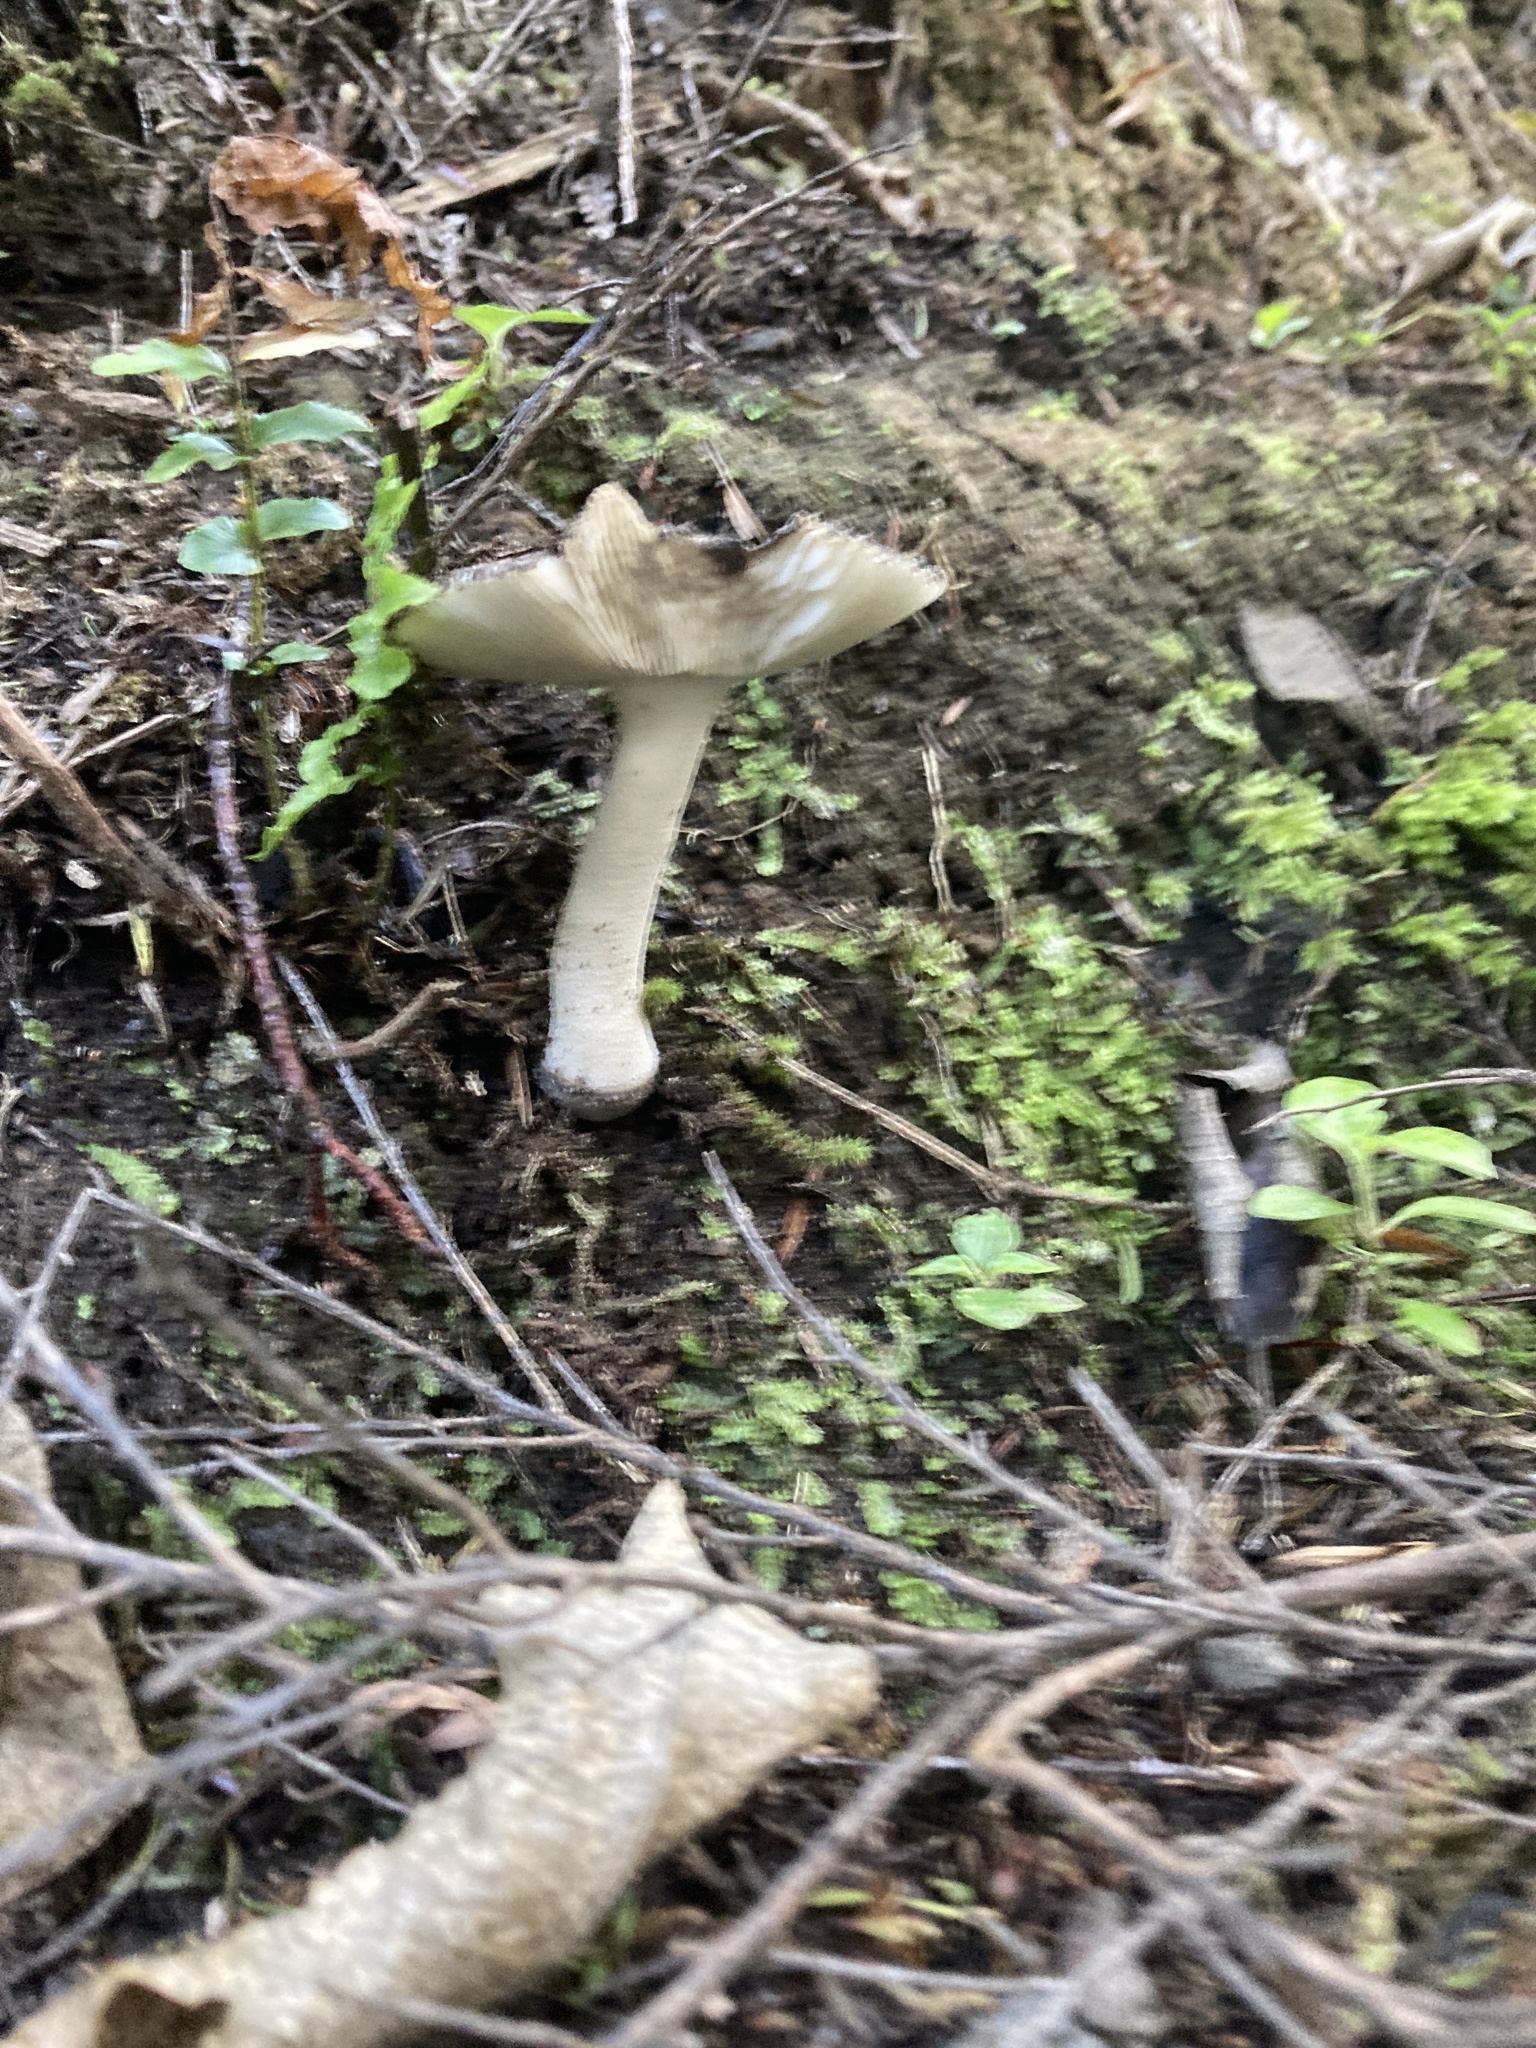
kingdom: Fungi
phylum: Basidiomycota
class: Agaricomycetes
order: Agaricales
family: Amanitaceae
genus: Amanita
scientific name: Amanita nehuta
